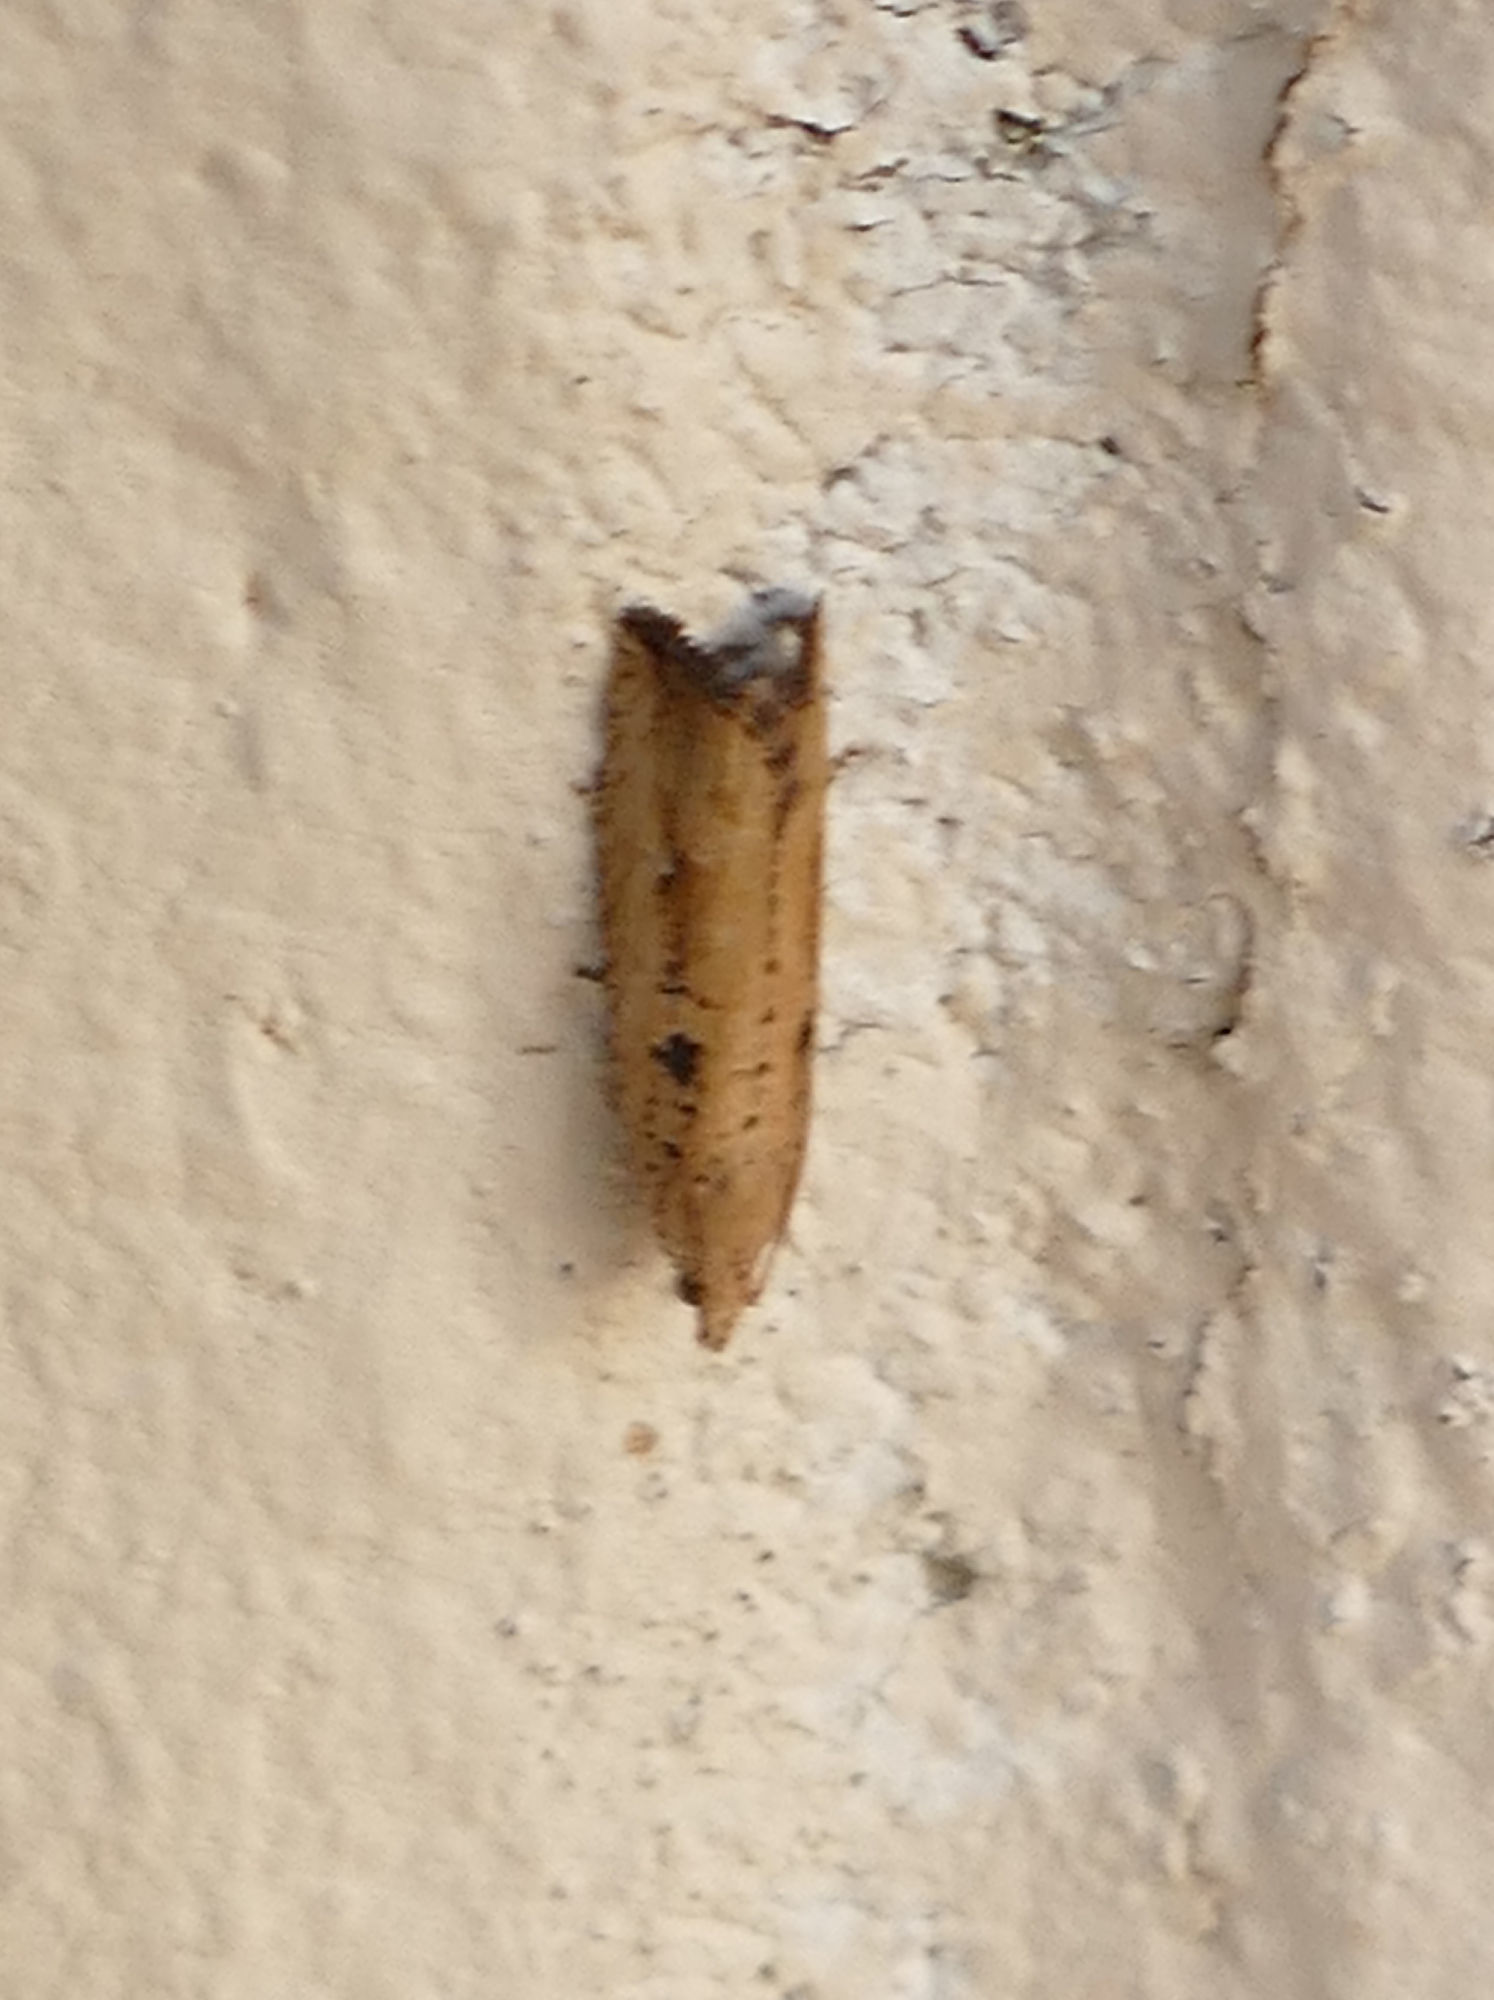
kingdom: Animalia
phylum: Arthropoda
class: Insecta
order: Lepidoptera
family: Tortricidae
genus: Bactra
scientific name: Bactra verutana
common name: Javelin moth
